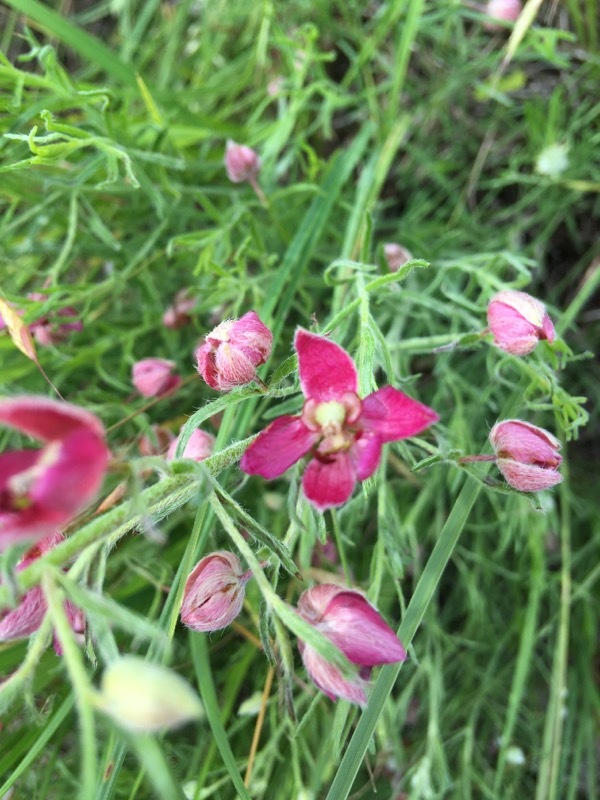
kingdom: Plantae
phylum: Tracheophyta
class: Magnoliopsida
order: Zygophyllales
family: Krameriaceae
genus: Krameria
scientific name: Krameria lanceolata
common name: Ratany
